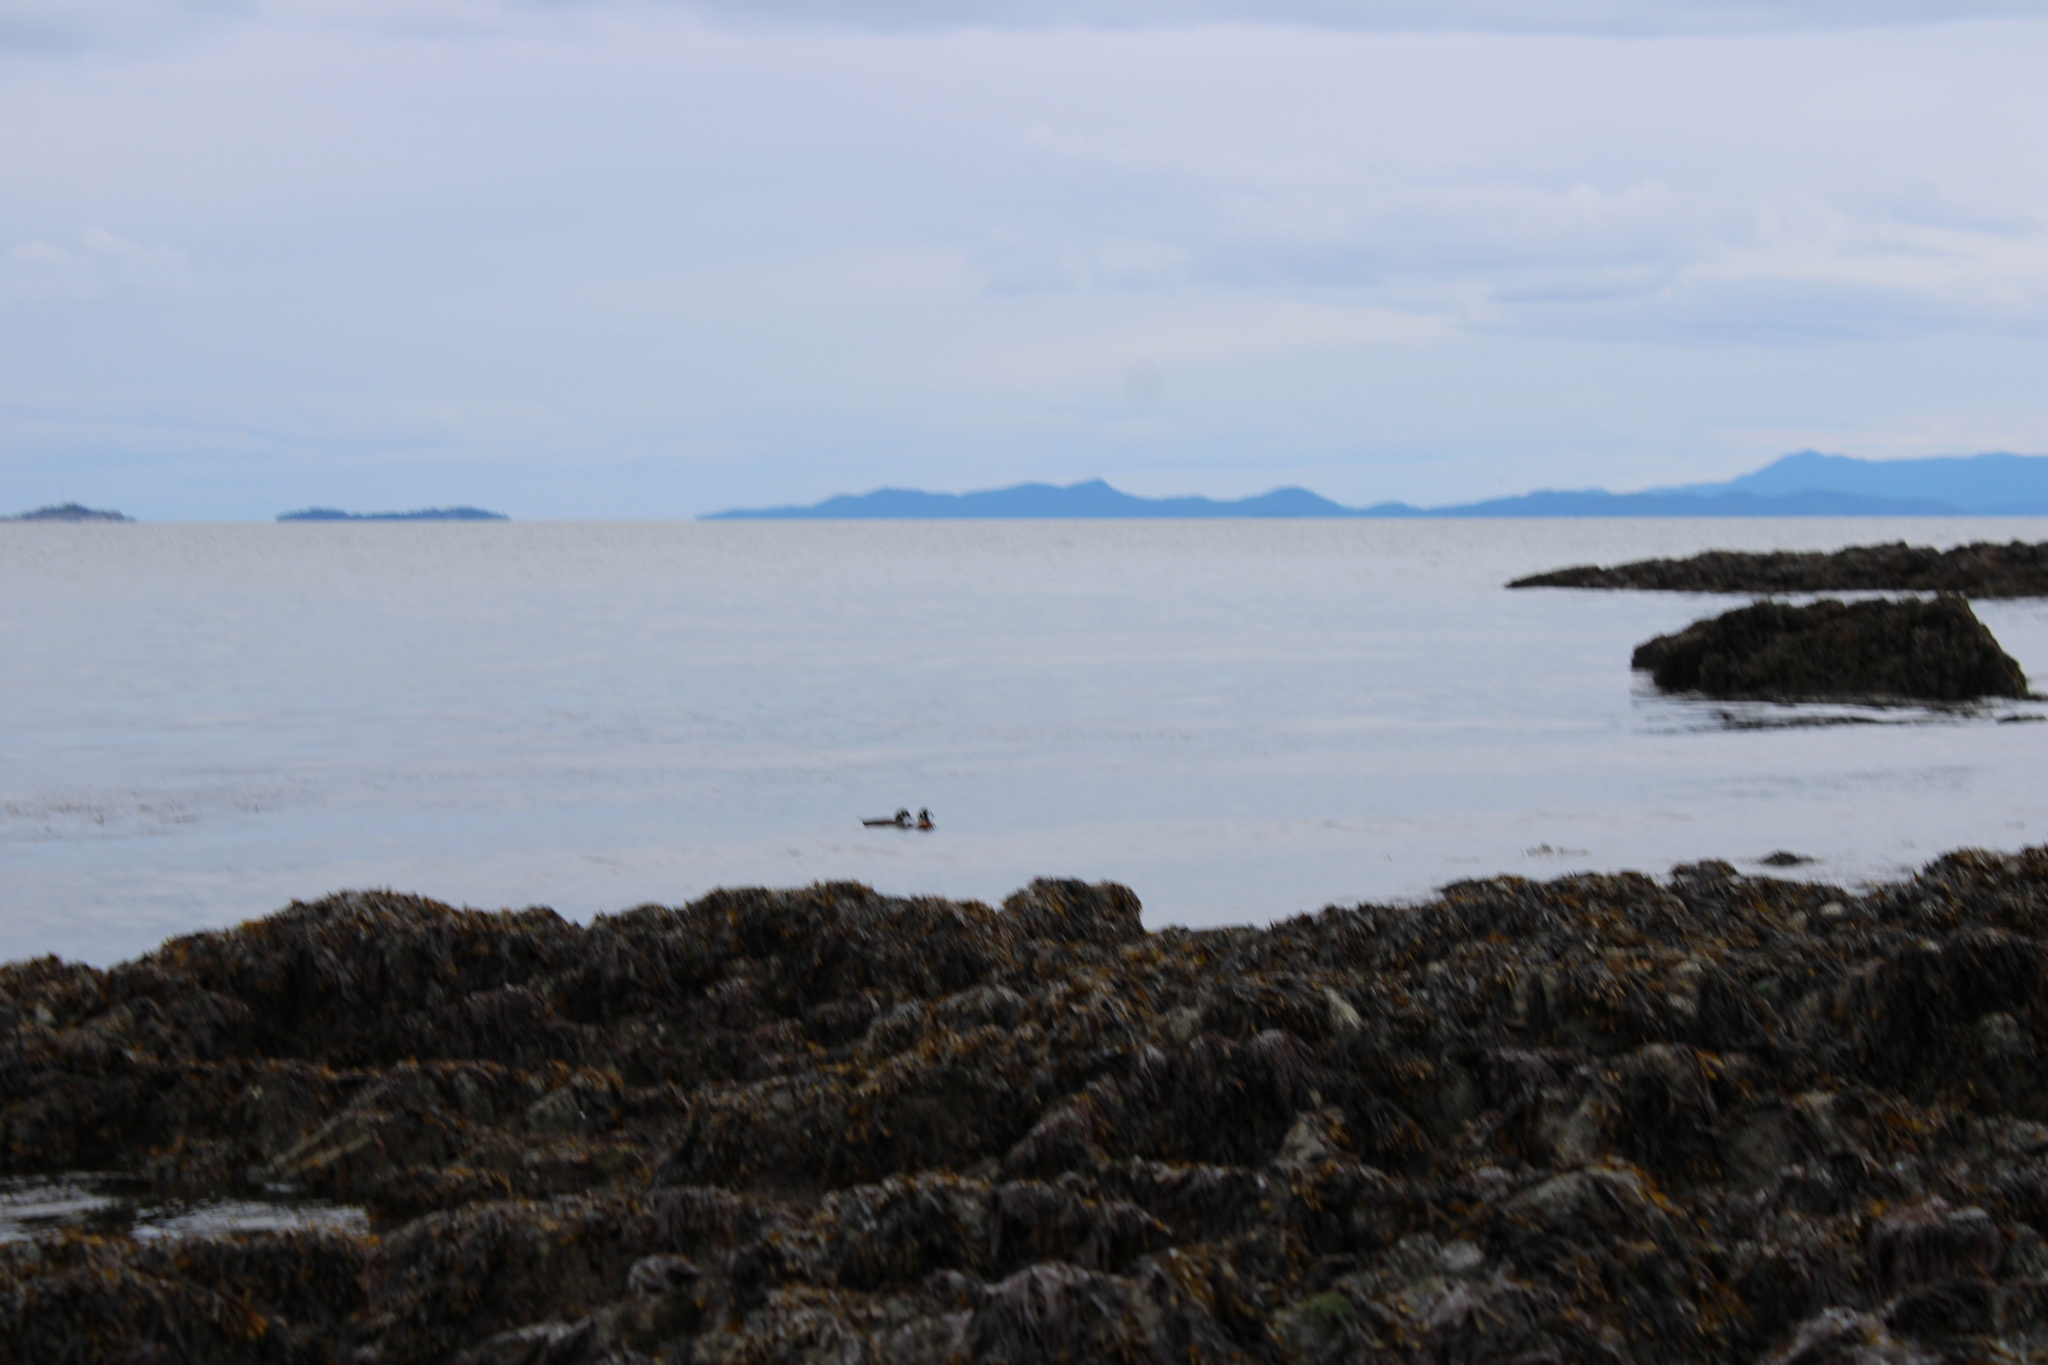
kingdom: Animalia
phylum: Chordata
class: Aves
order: Anseriformes
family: Anatidae
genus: Histrionicus
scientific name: Histrionicus histrionicus
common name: Harlequin duck
